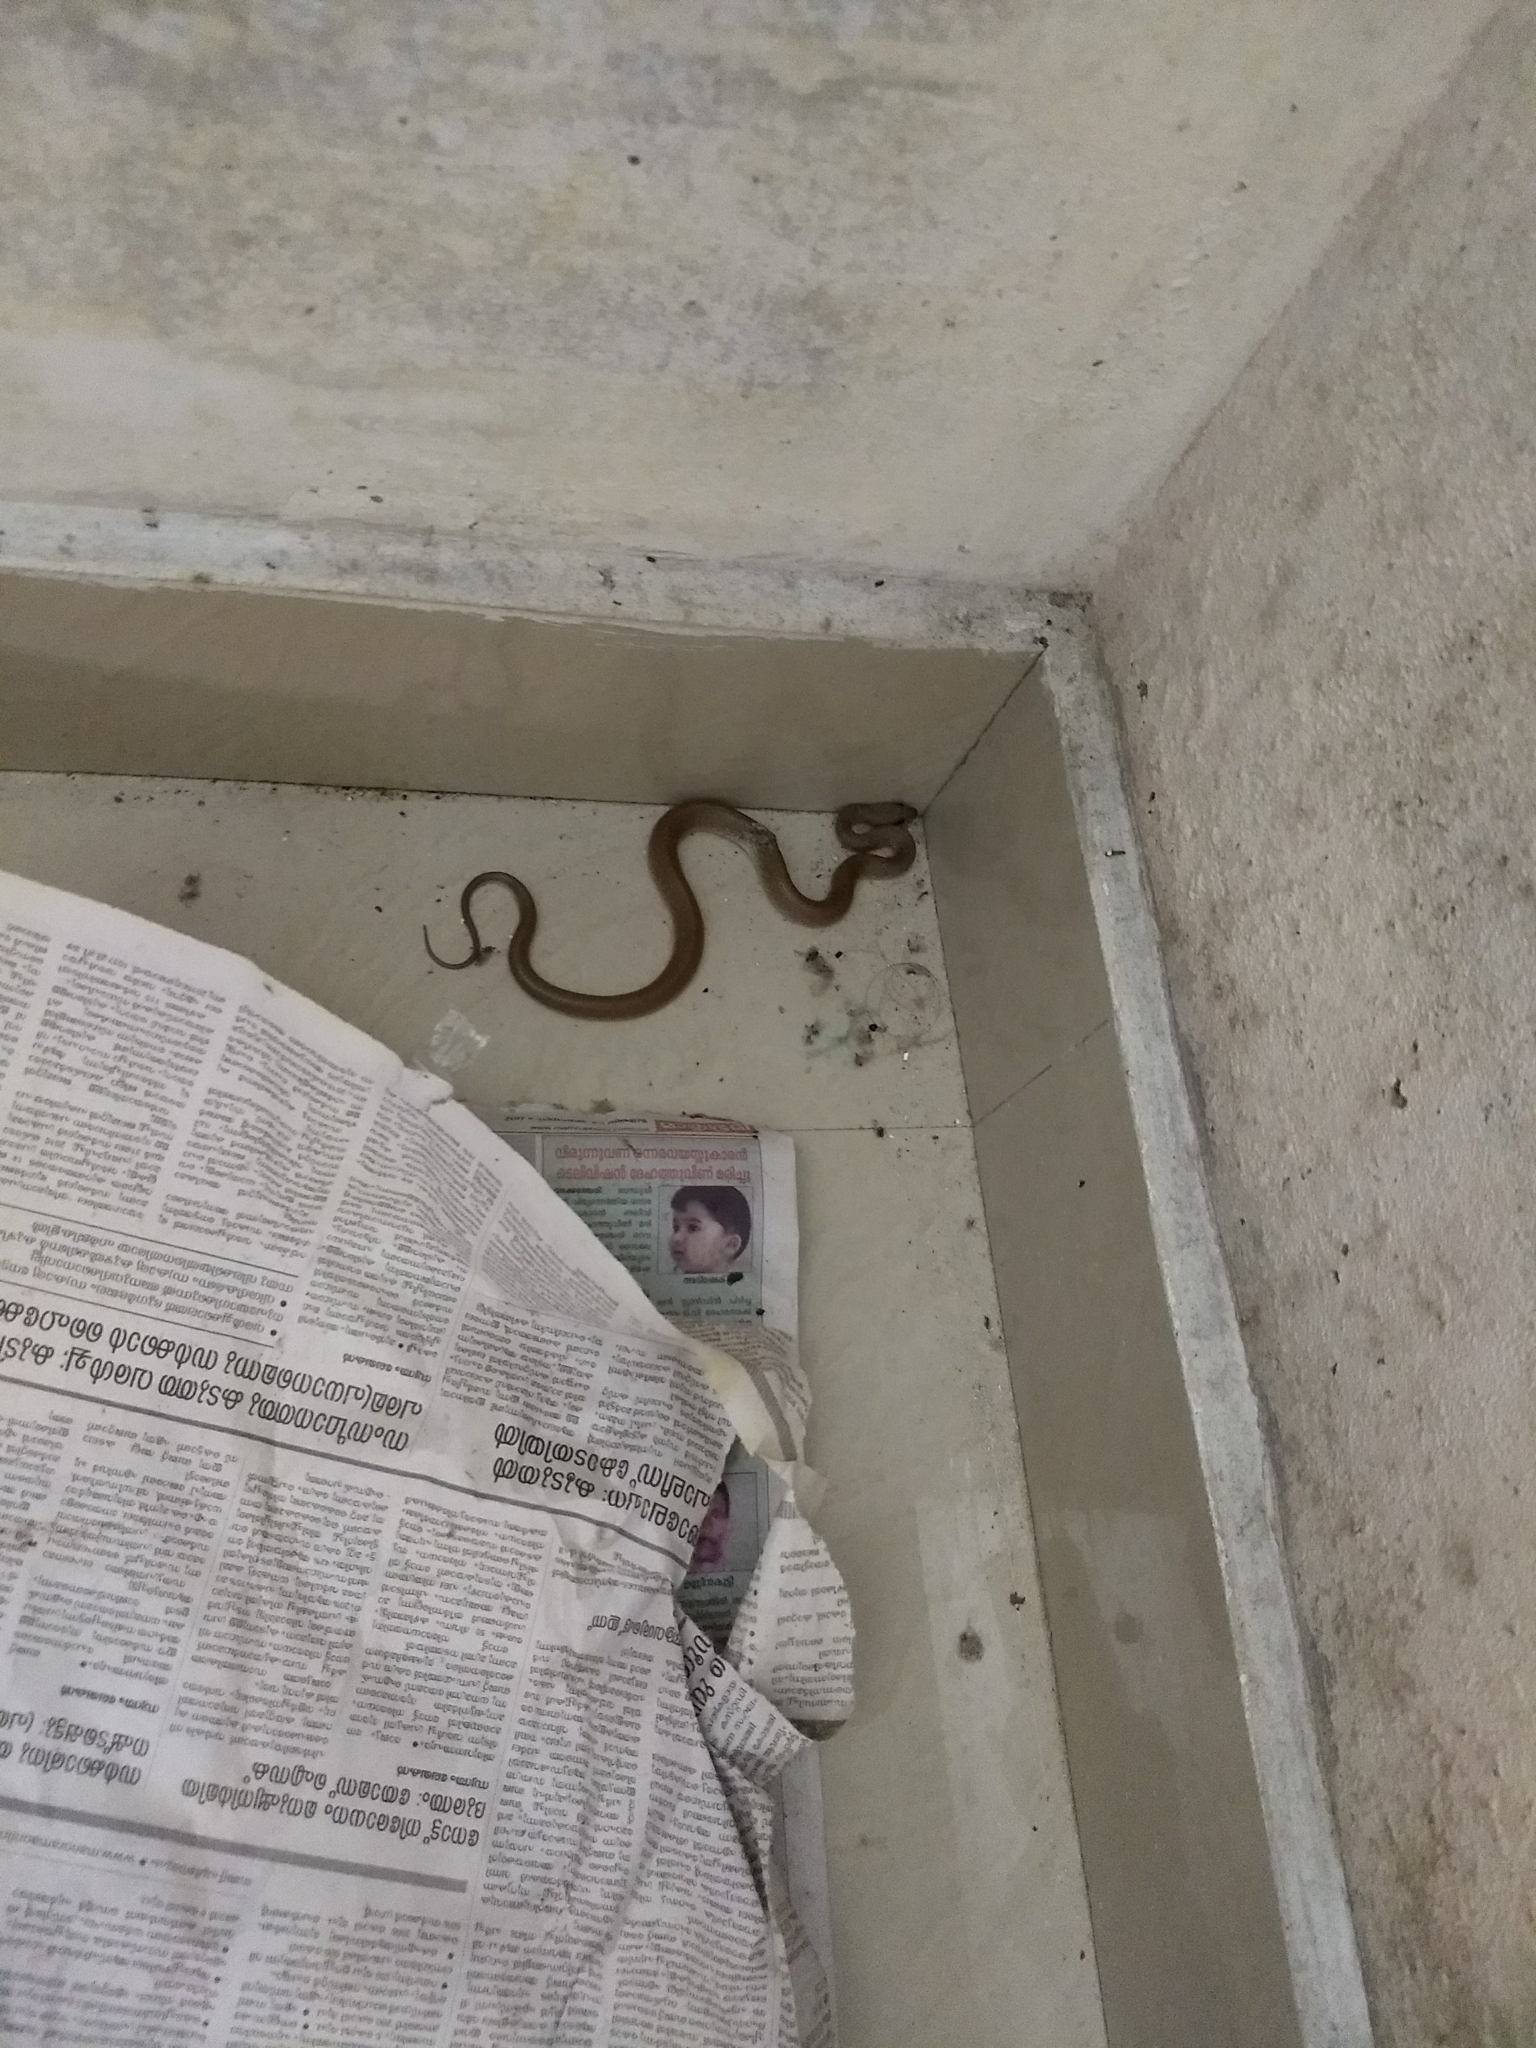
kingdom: Animalia
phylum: Chordata
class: Squamata
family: Colubridae
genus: Lycodon
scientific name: Lycodon fasciolatus
